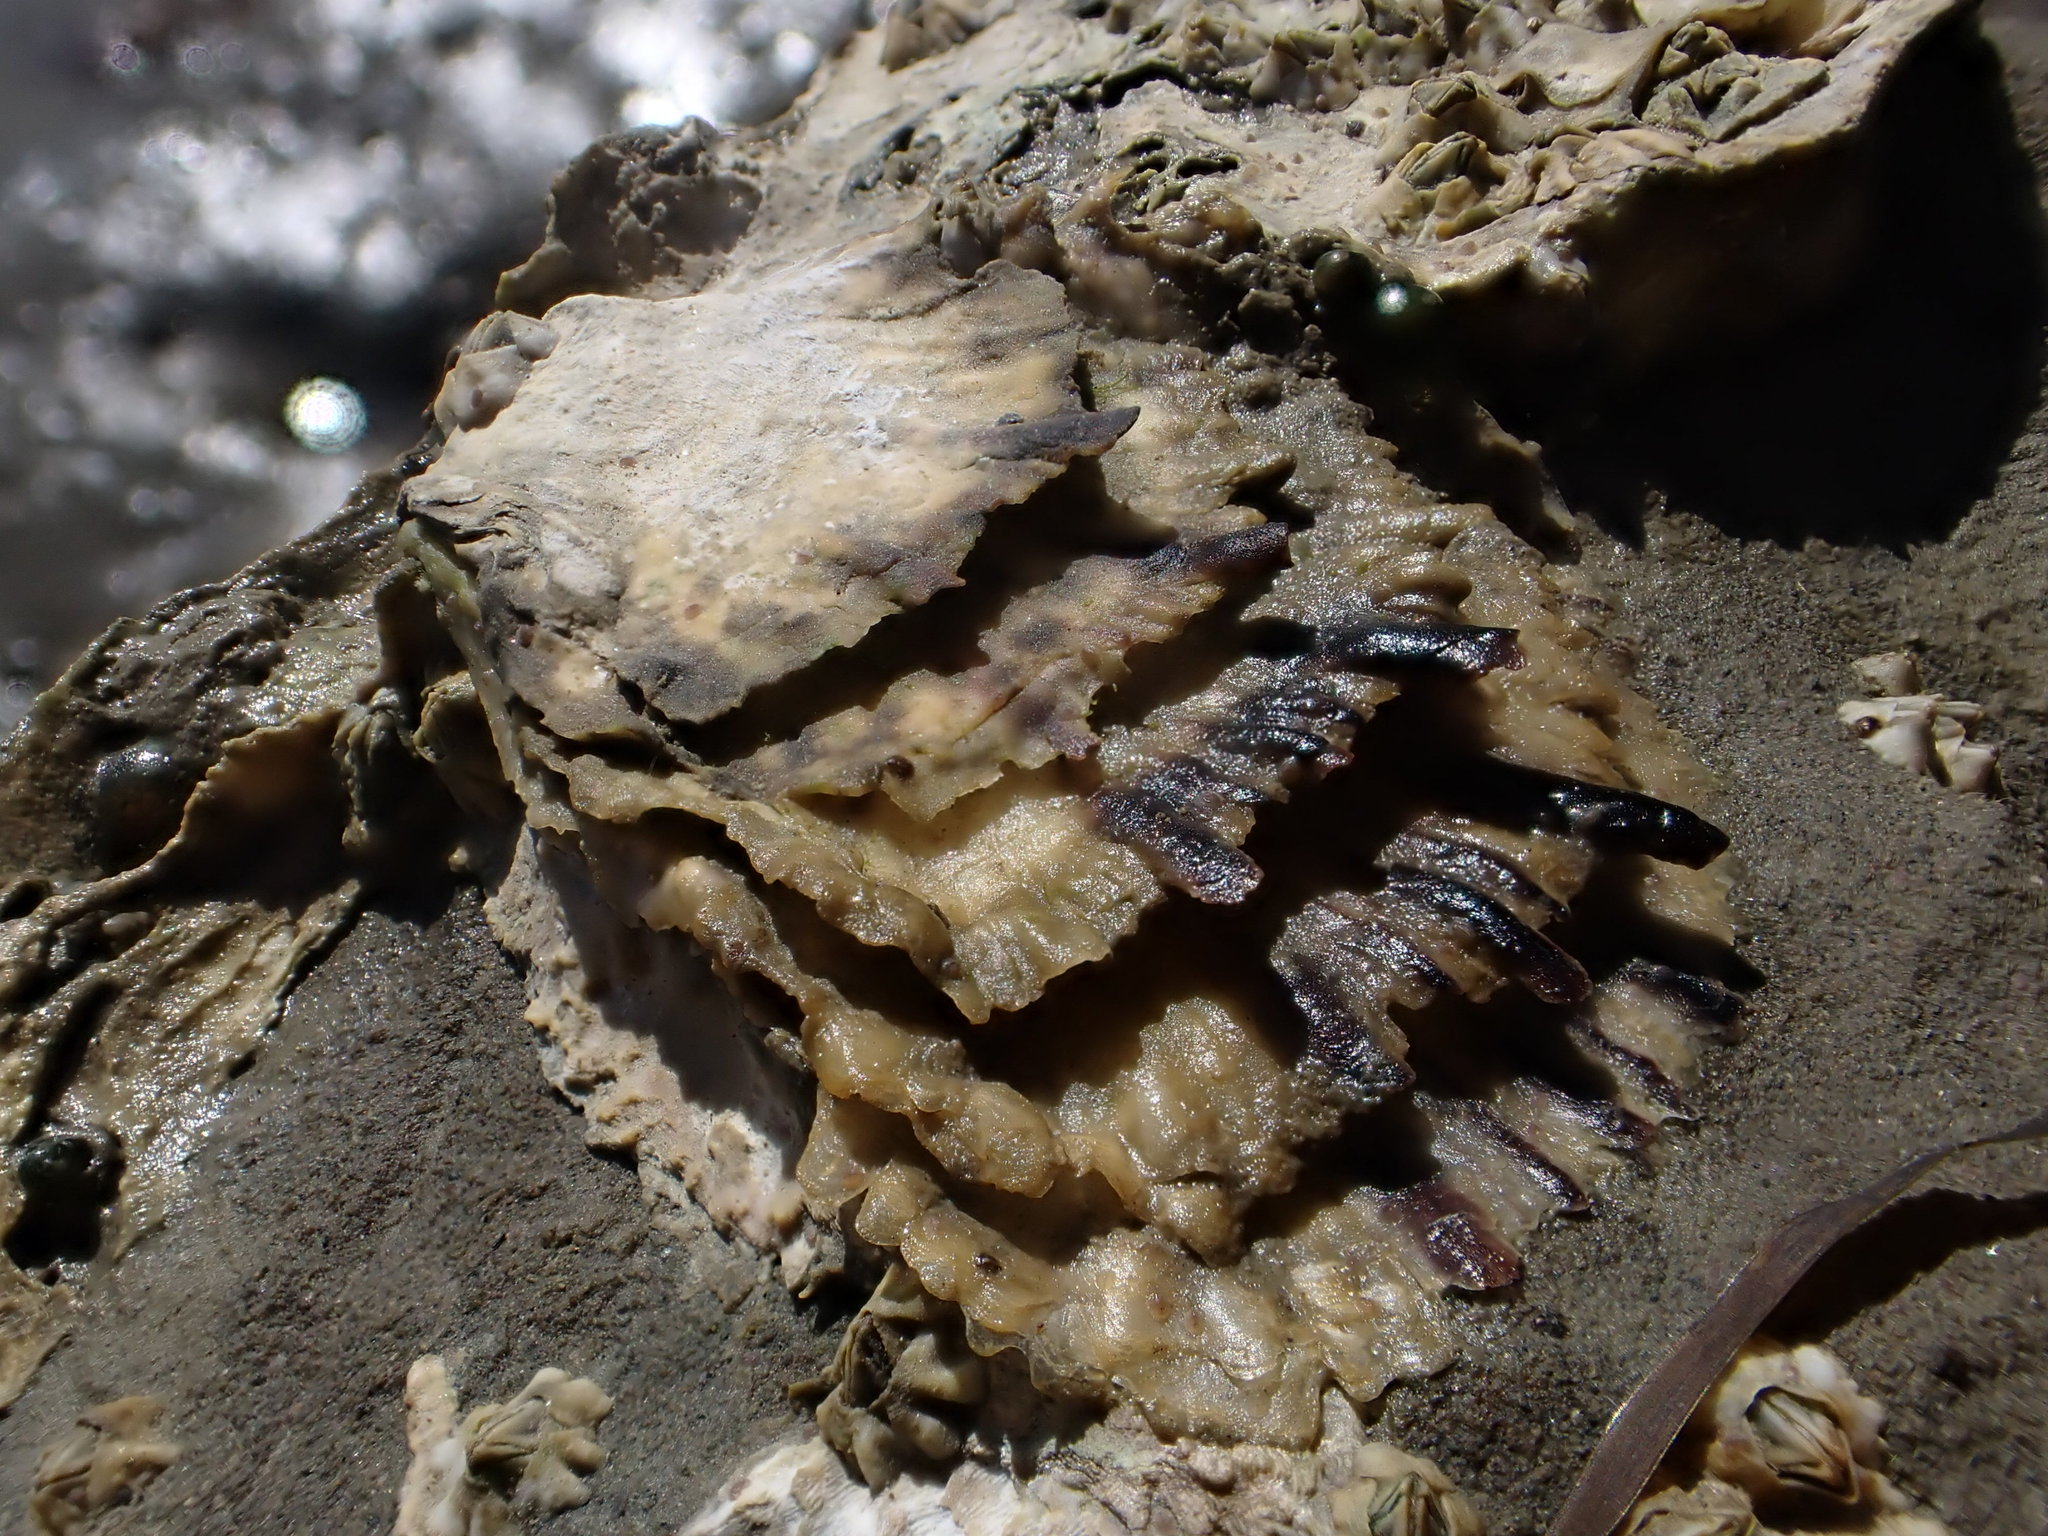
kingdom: Animalia
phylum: Mollusca
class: Bivalvia
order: Ostreida
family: Ostreidae
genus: Magallana
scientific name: Magallana gigas
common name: Pacific oyster
